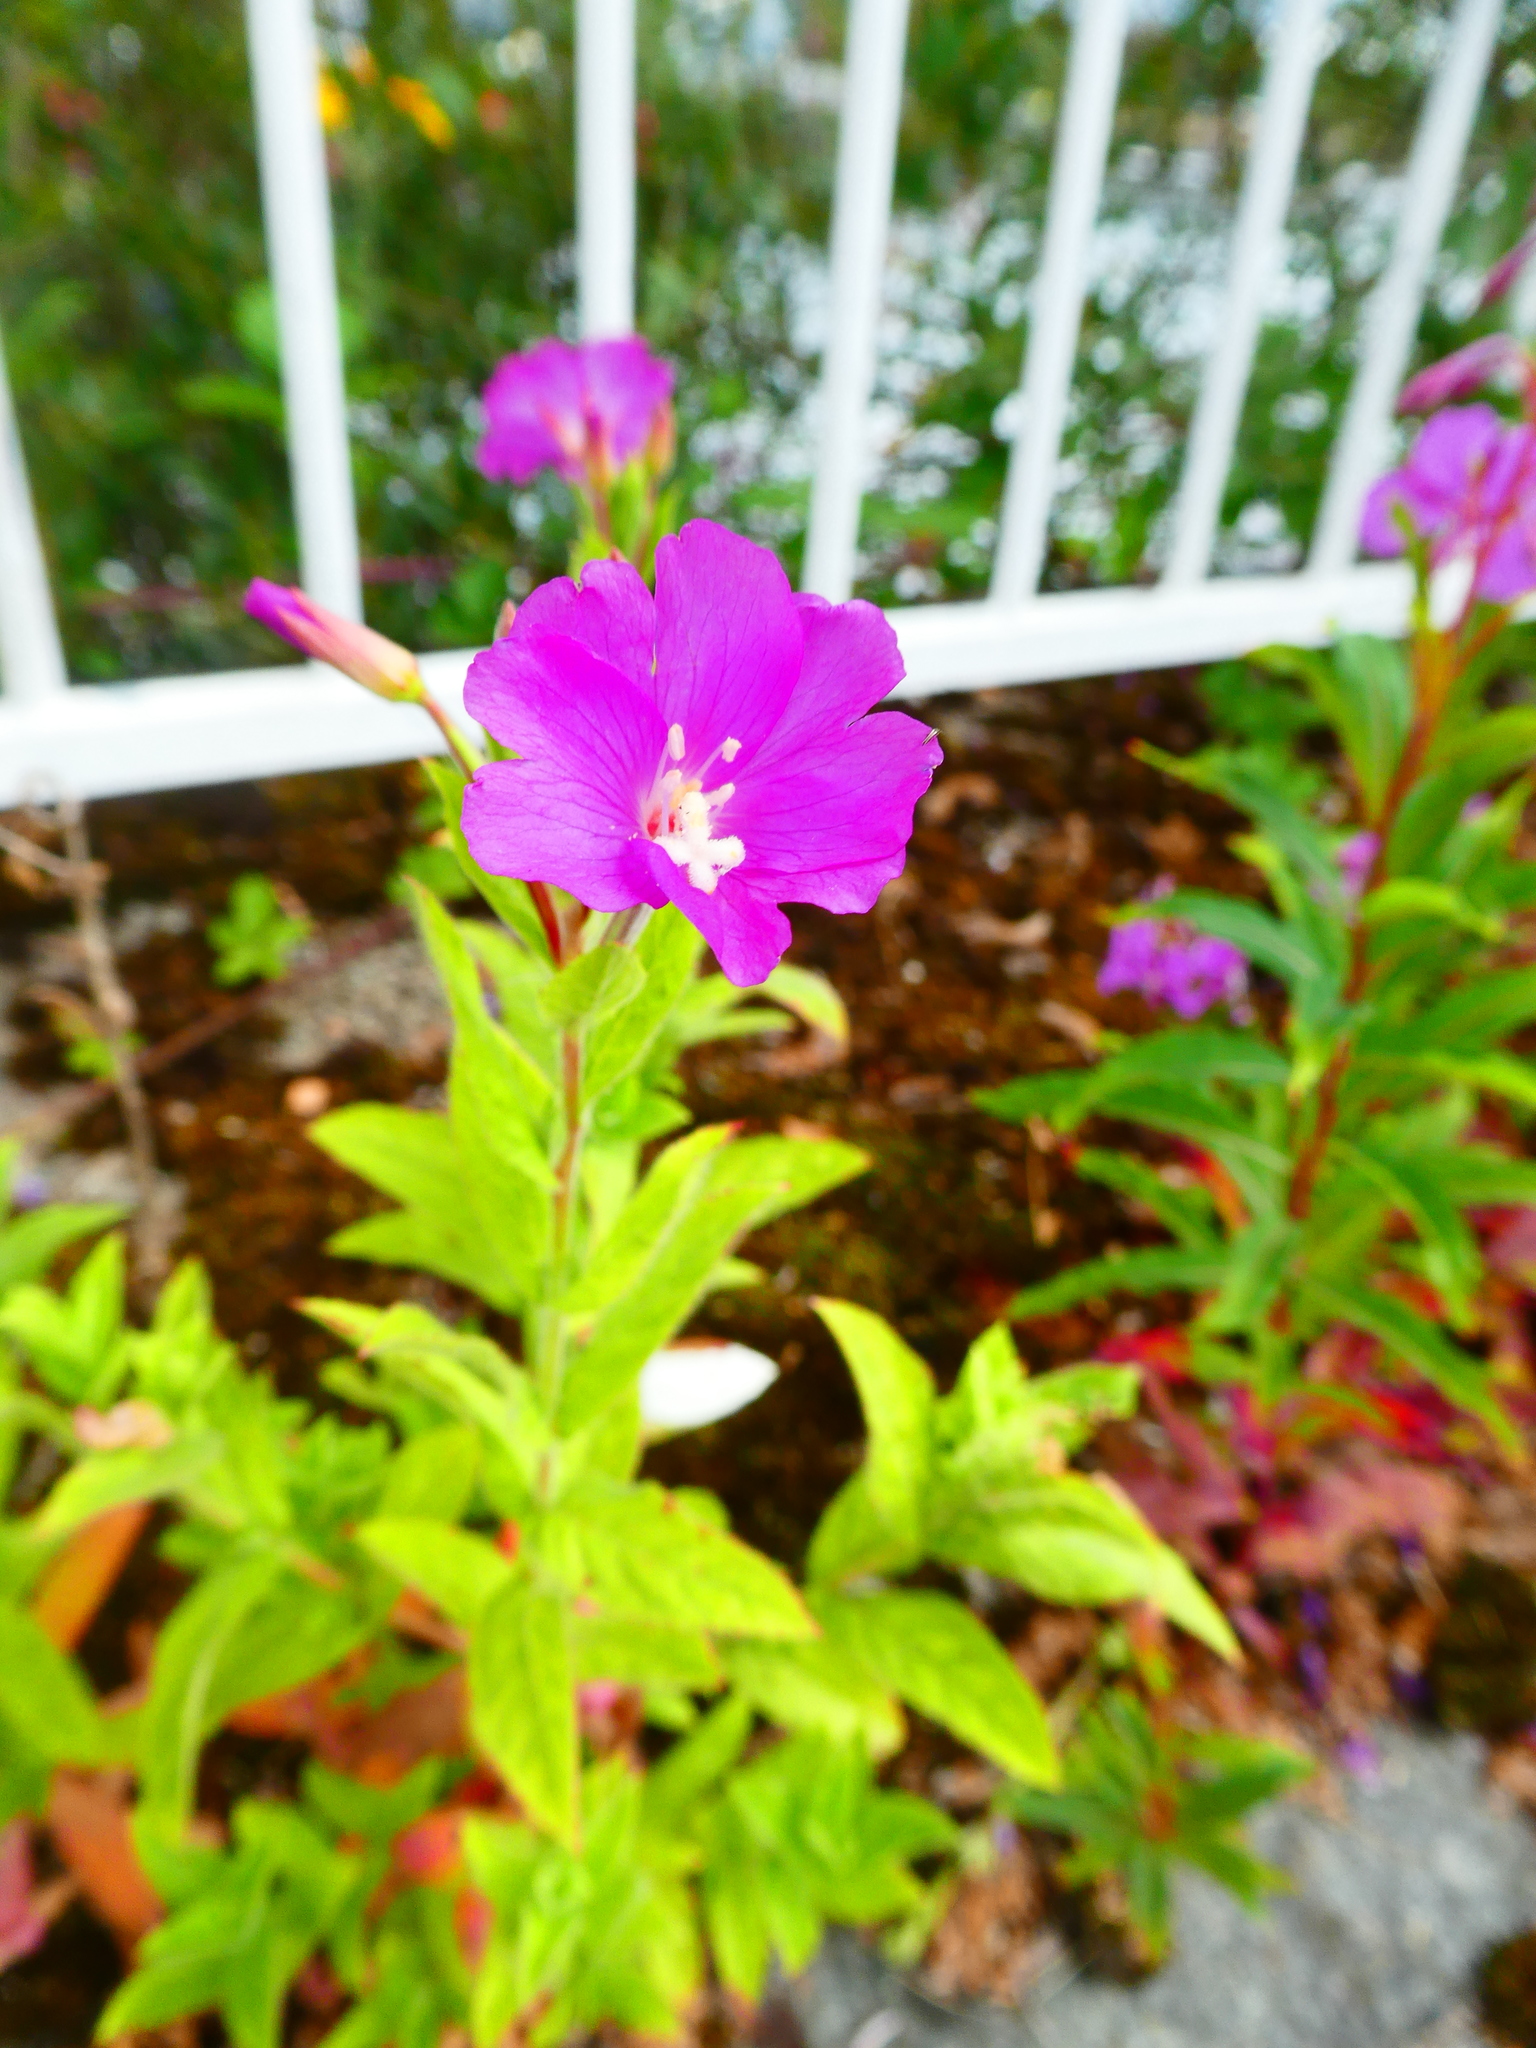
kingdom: Plantae
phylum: Tracheophyta
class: Magnoliopsida
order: Myrtales
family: Onagraceae
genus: Epilobium
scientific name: Epilobium hirsutum
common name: Great willowherb
